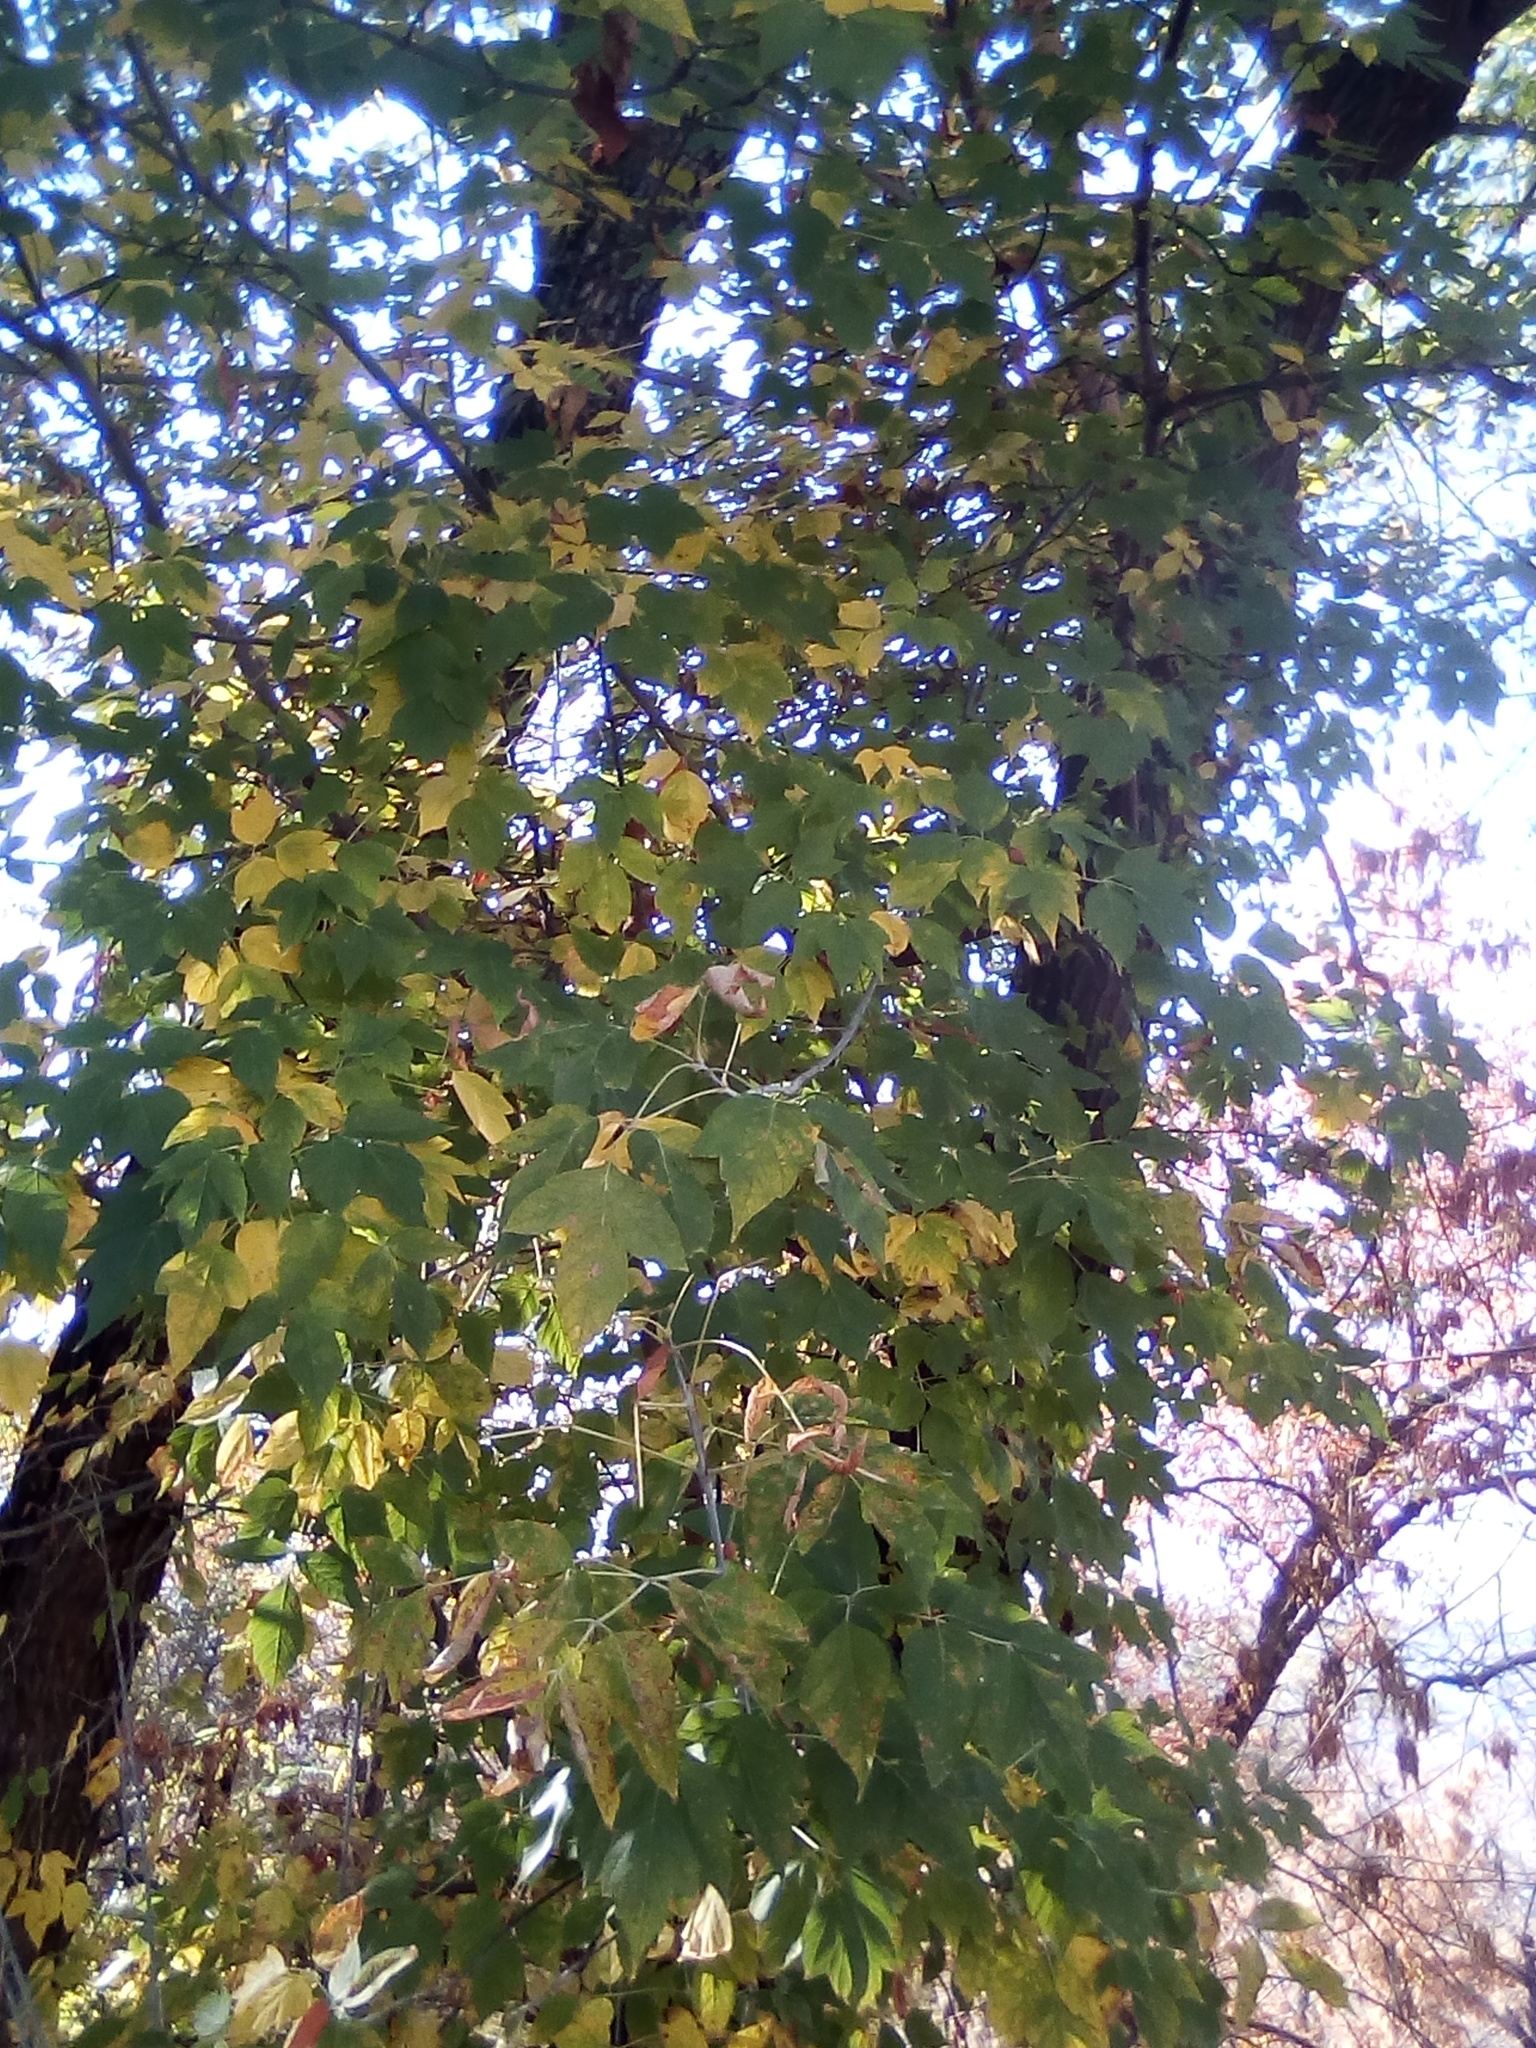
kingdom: Plantae
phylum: Tracheophyta
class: Magnoliopsida
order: Sapindales
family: Sapindaceae
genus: Acer
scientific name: Acer negundo
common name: Ashleaf maple
